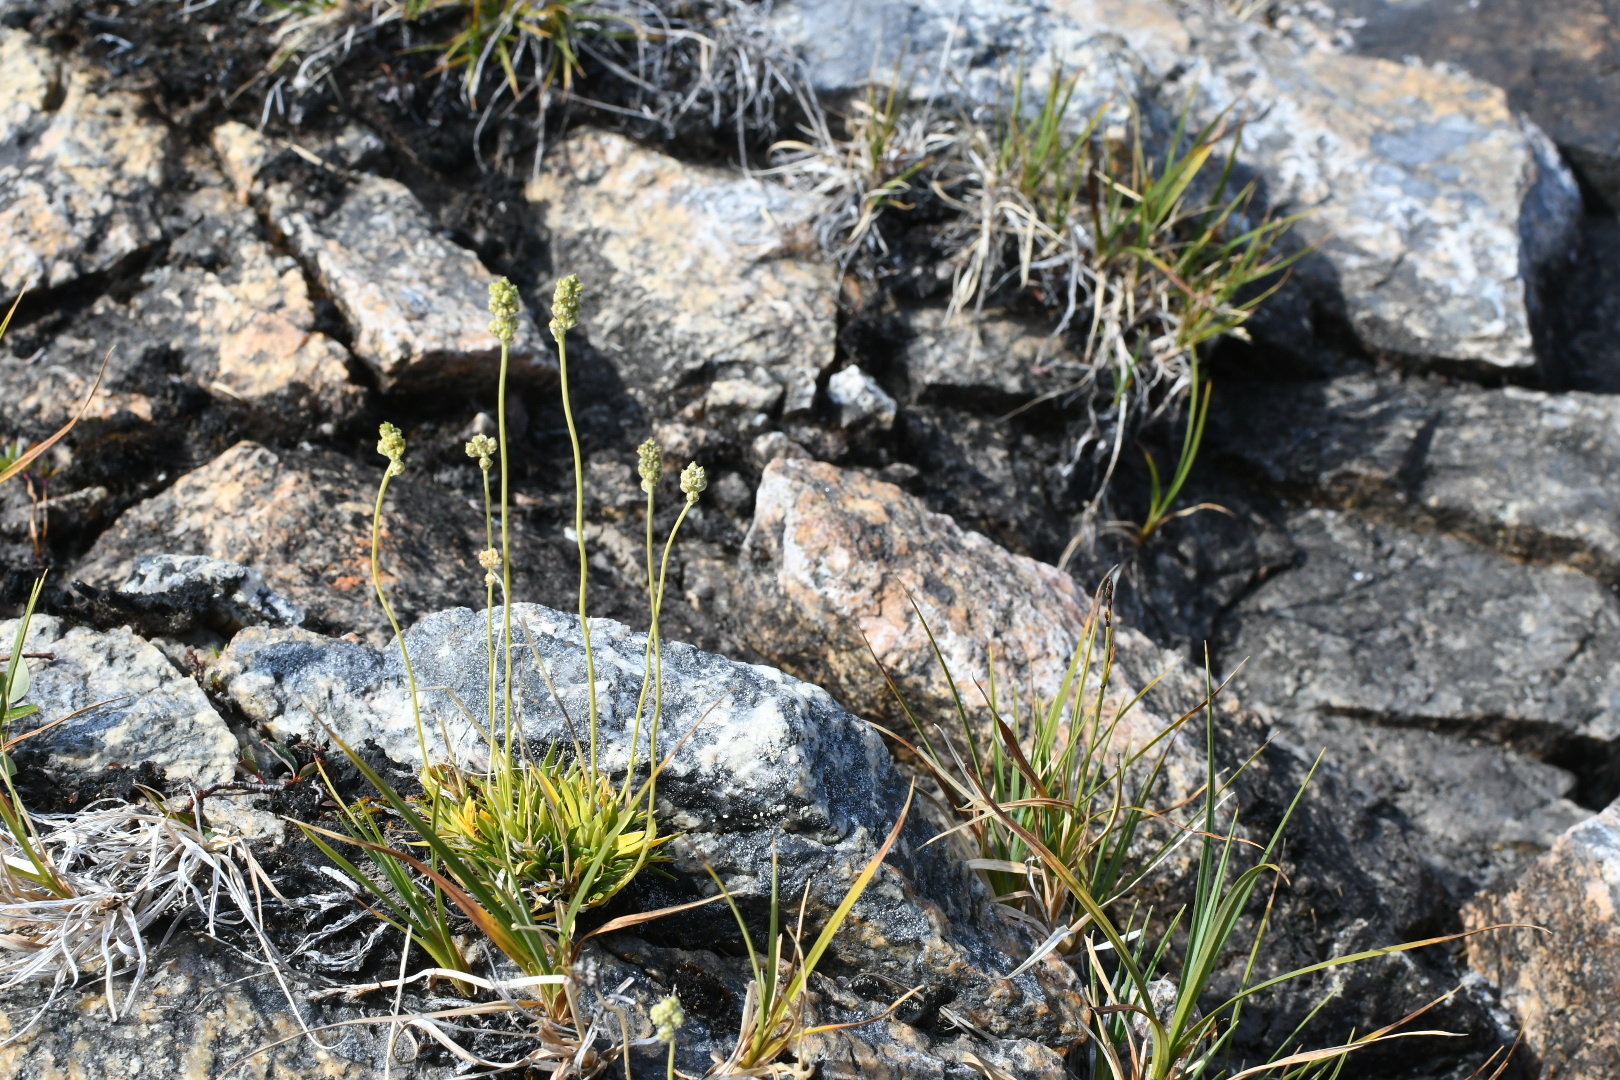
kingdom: Plantae
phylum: Tracheophyta
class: Liliopsida
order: Alismatales
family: Tofieldiaceae
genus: Tofieldia
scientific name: Tofieldia pusilla
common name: Scottish false asphodel
